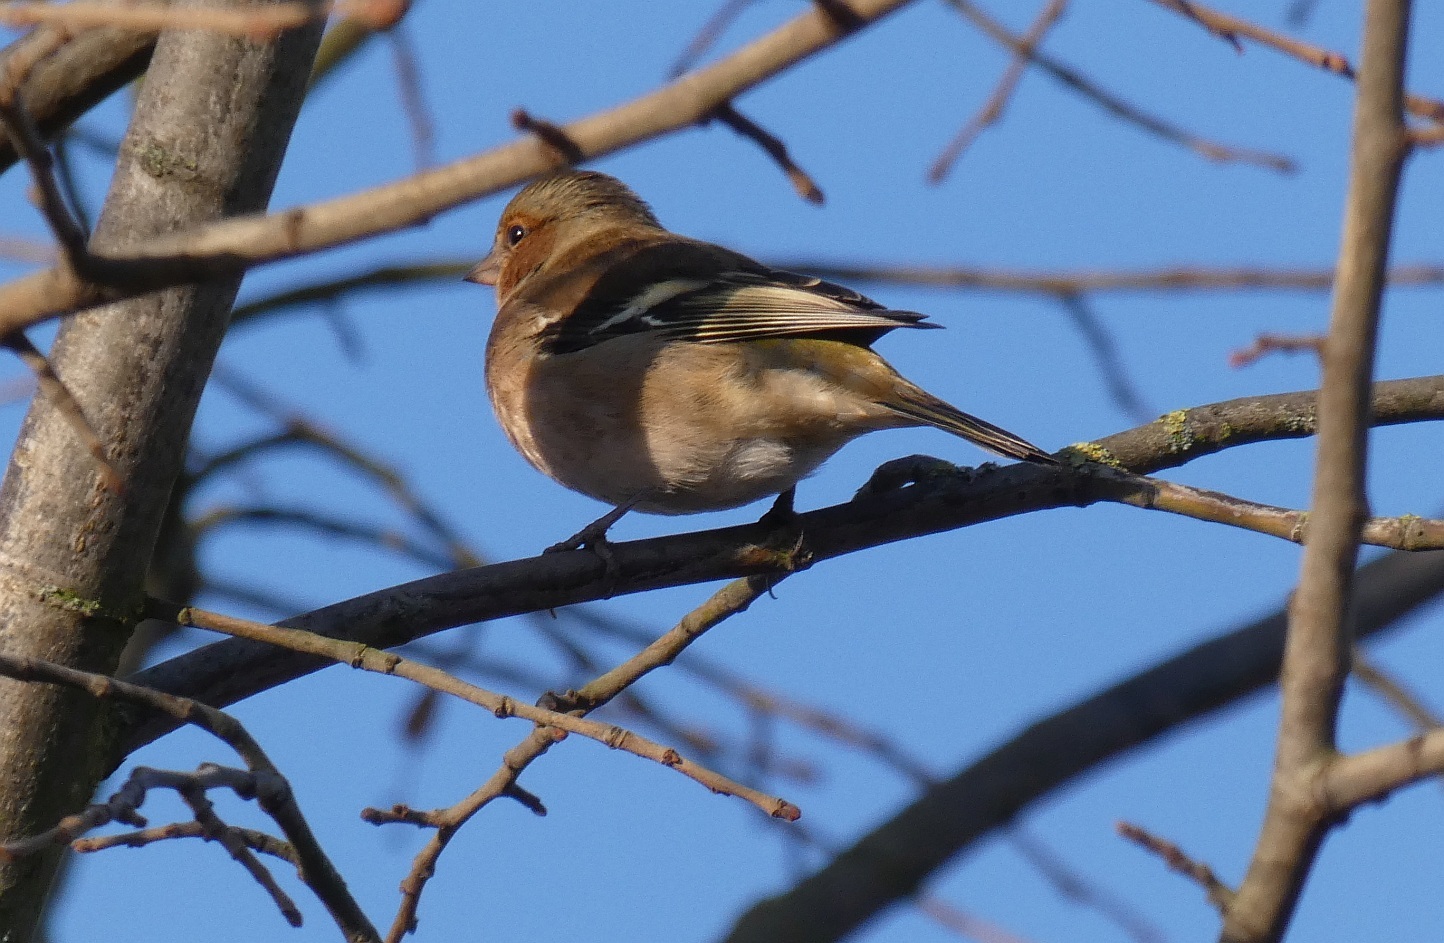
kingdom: Animalia
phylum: Chordata
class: Aves
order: Passeriformes
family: Fringillidae
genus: Fringilla
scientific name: Fringilla coelebs
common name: Common chaffinch
